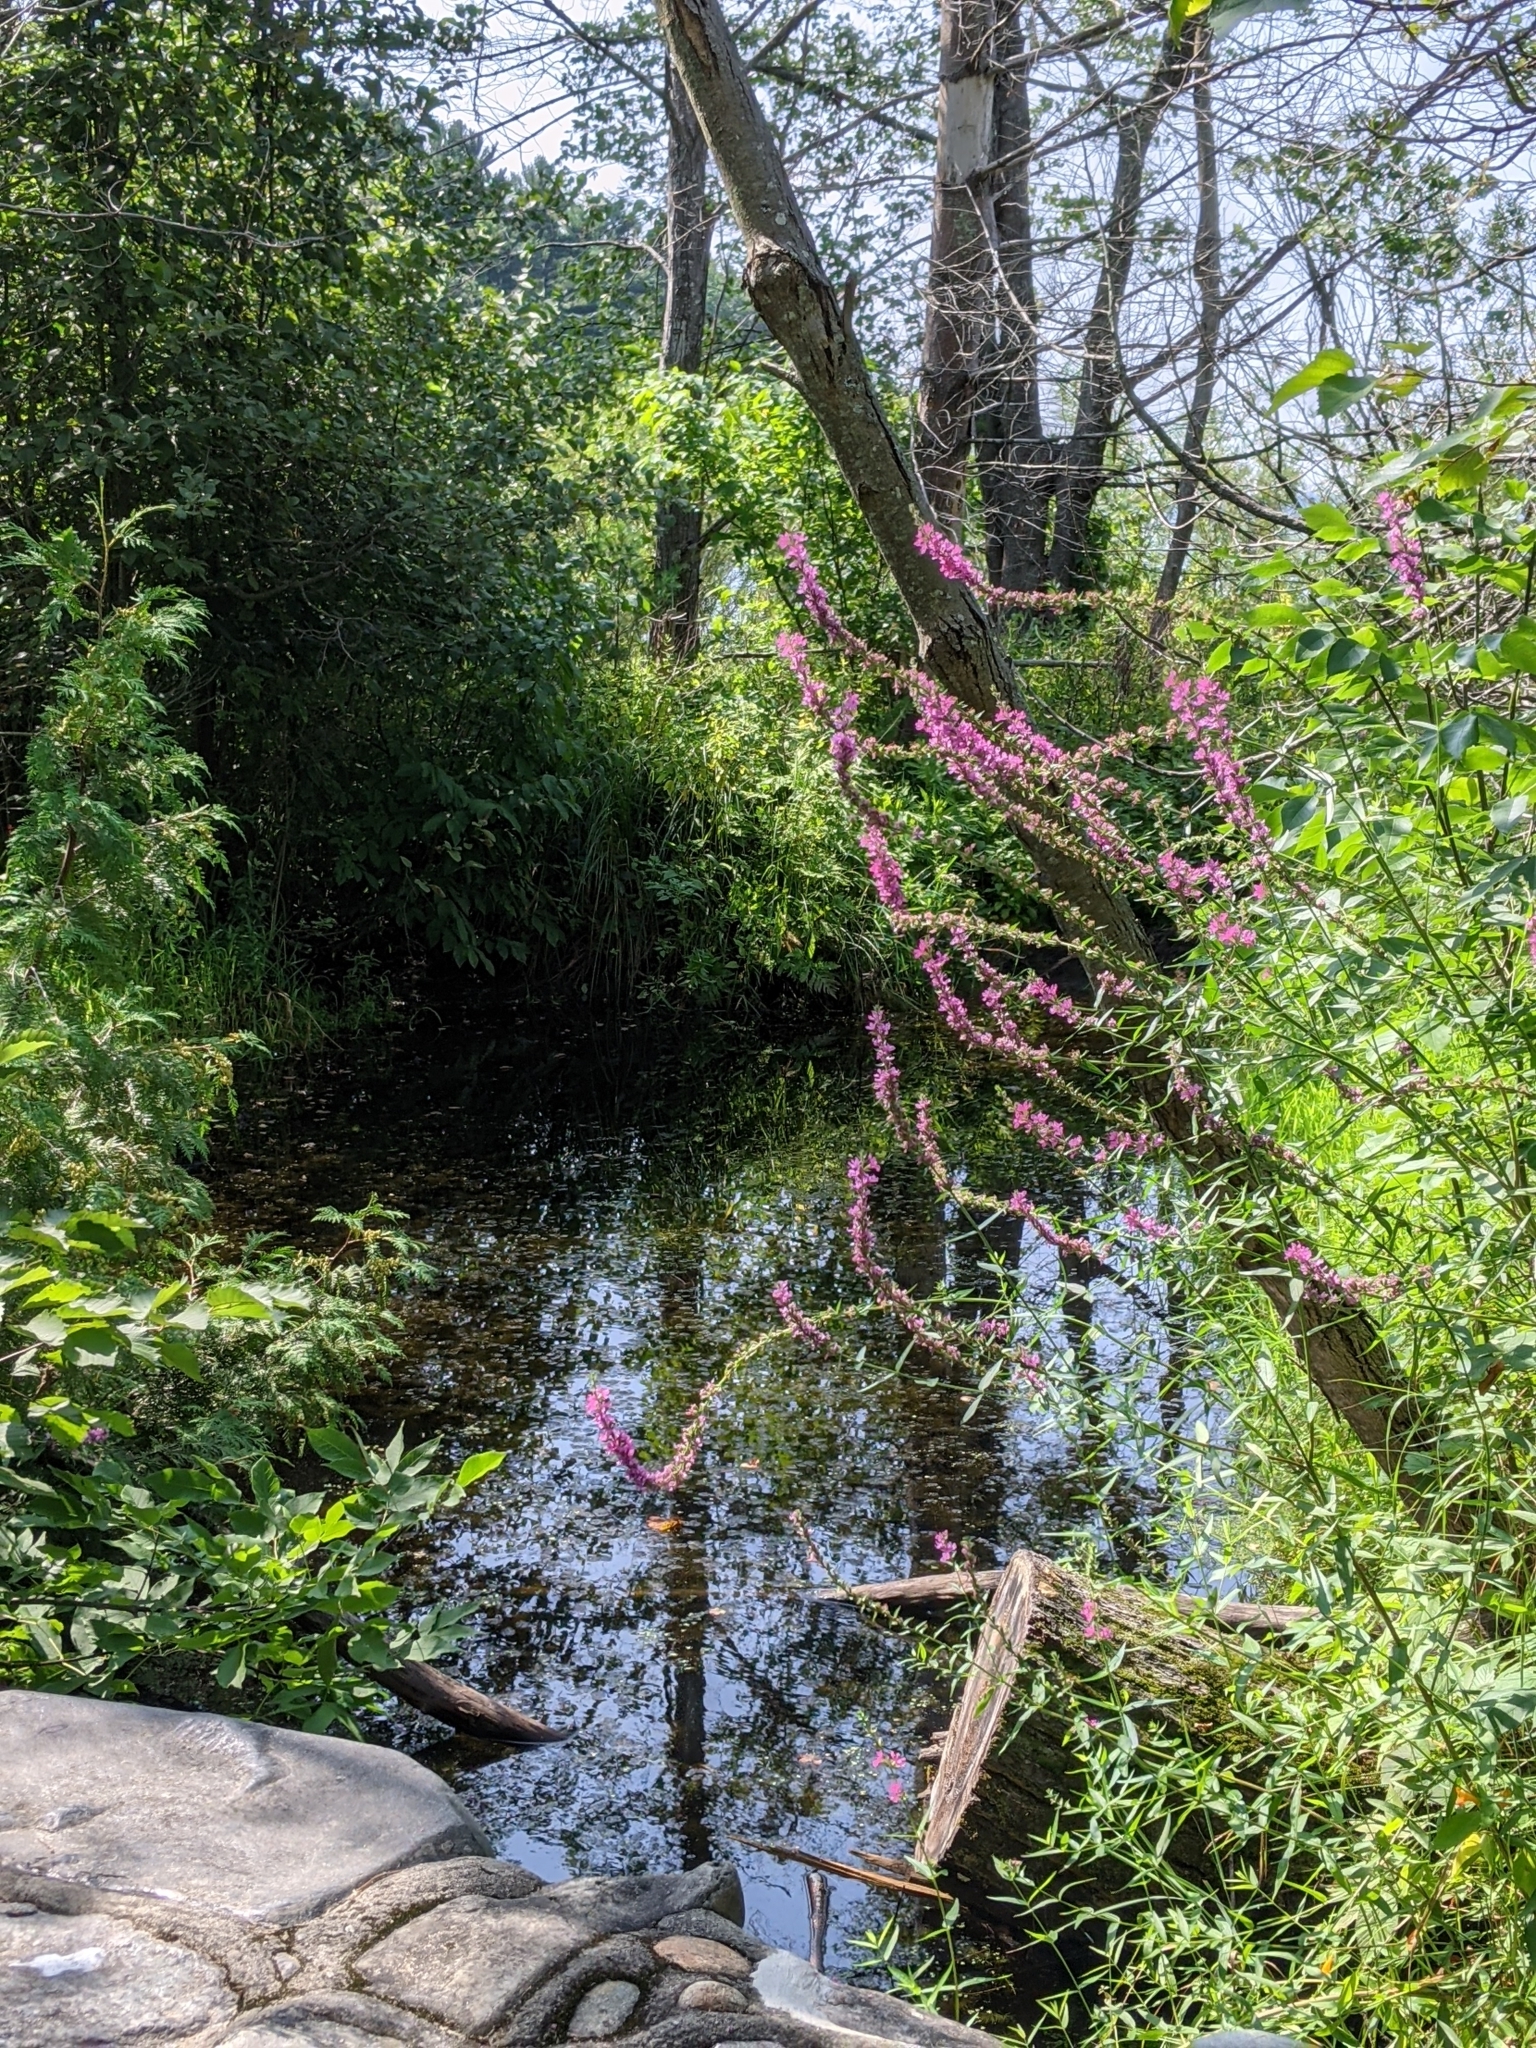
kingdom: Plantae
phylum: Tracheophyta
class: Magnoliopsida
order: Myrtales
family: Lythraceae
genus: Lythrum
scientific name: Lythrum salicaria
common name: Purple loosestrife
